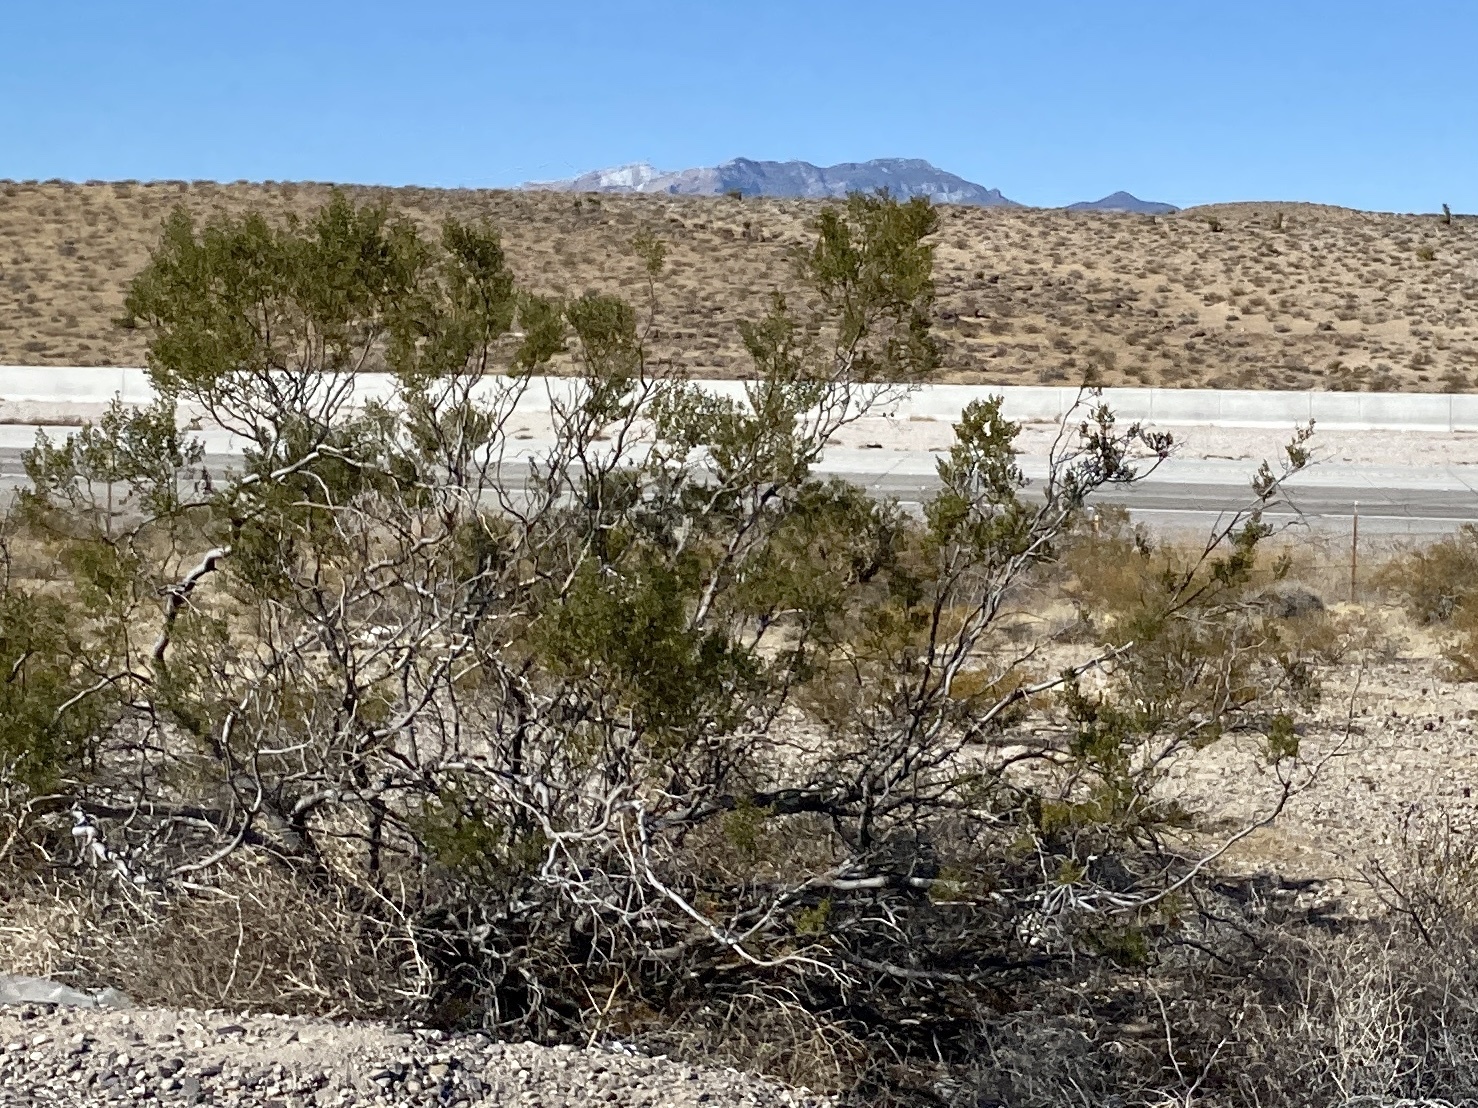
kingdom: Plantae
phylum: Tracheophyta
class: Magnoliopsida
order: Zygophyllales
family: Zygophyllaceae
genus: Larrea
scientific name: Larrea tridentata
